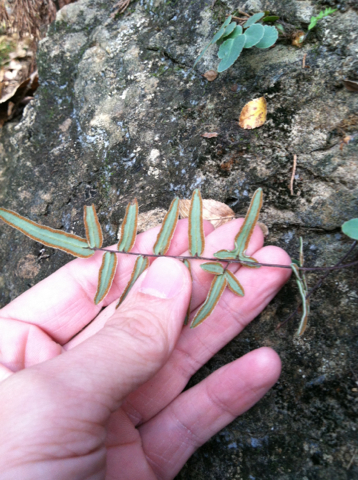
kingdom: Plantae
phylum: Tracheophyta
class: Polypodiopsida
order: Polypodiales
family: Pteridaceae
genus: Pellaea
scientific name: Pellaea atropurpurea
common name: Hairy cliffbrake
